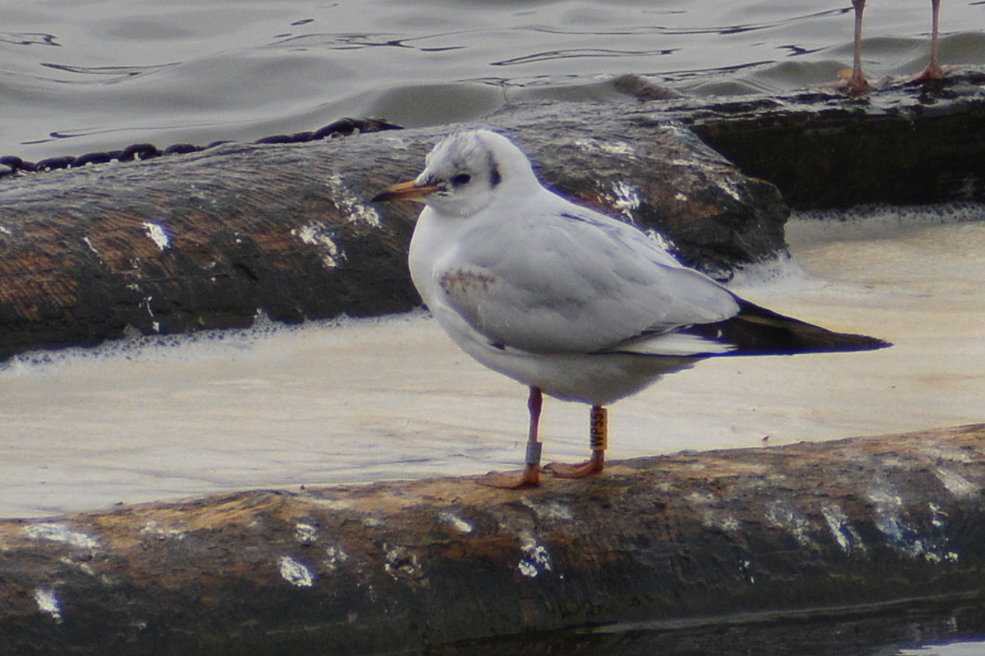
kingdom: Animalia
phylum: Chordata
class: Aves
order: Charadriiformes
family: Laridae
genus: Chroicocephalus
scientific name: Chroicocephalus ridibundus
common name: Black-headed gull
